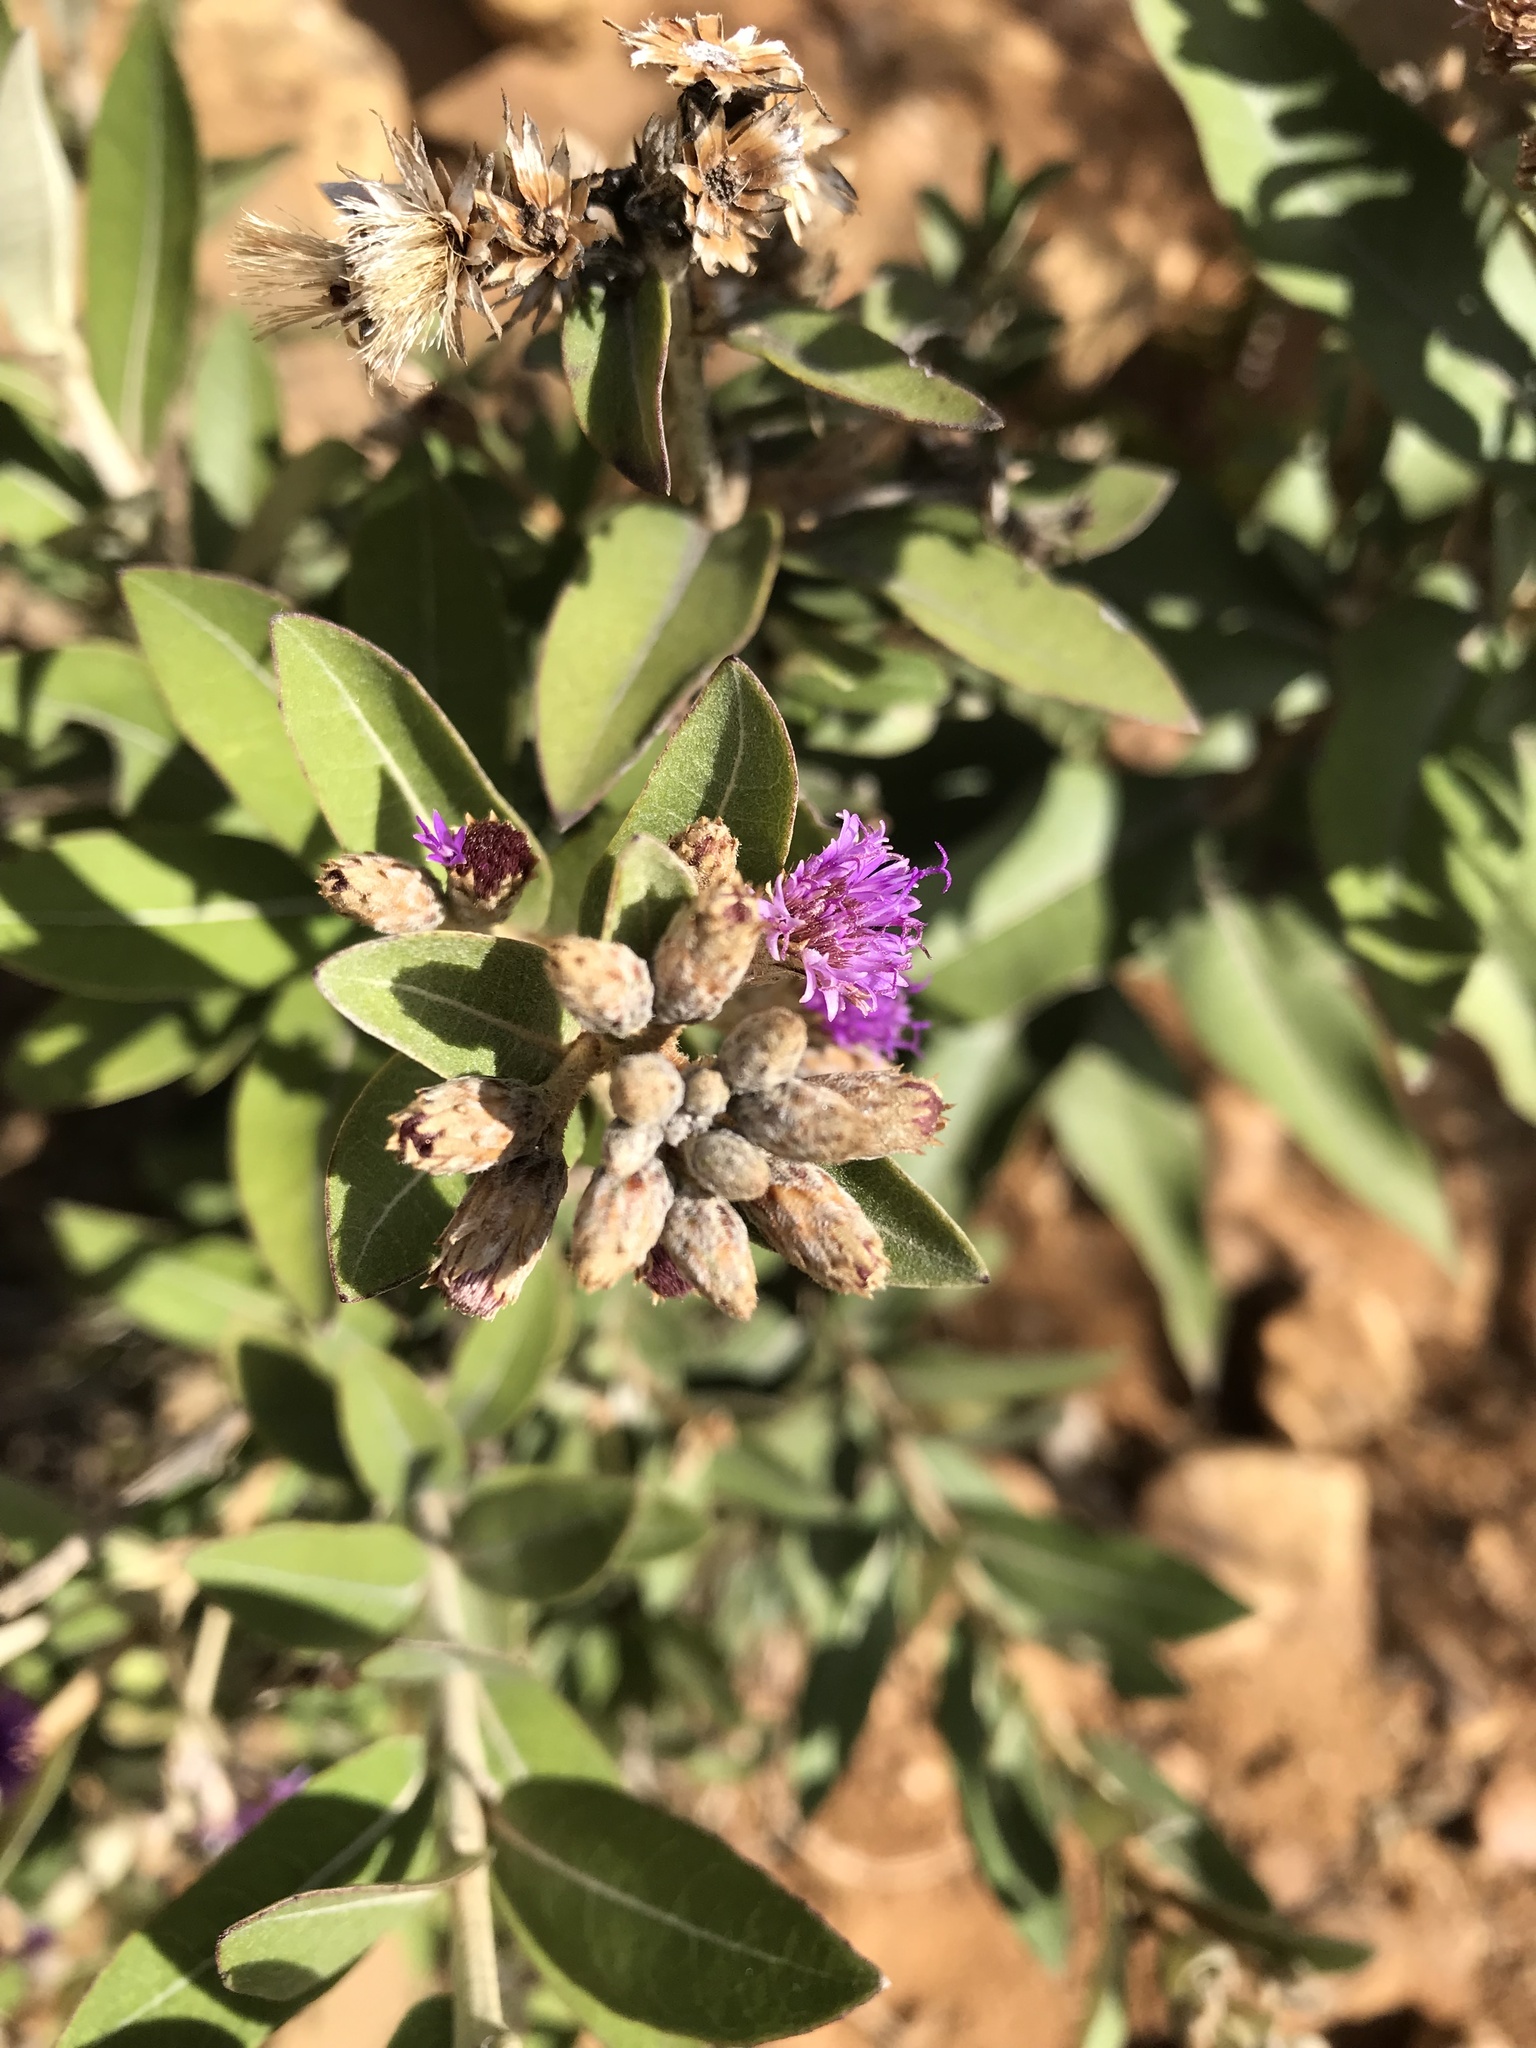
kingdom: Plantae
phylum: Tracheophyta
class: Magnoliopsida
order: Asterales
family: Asteraceae
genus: Lepidaploa
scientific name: Lepidaploa karstenii
